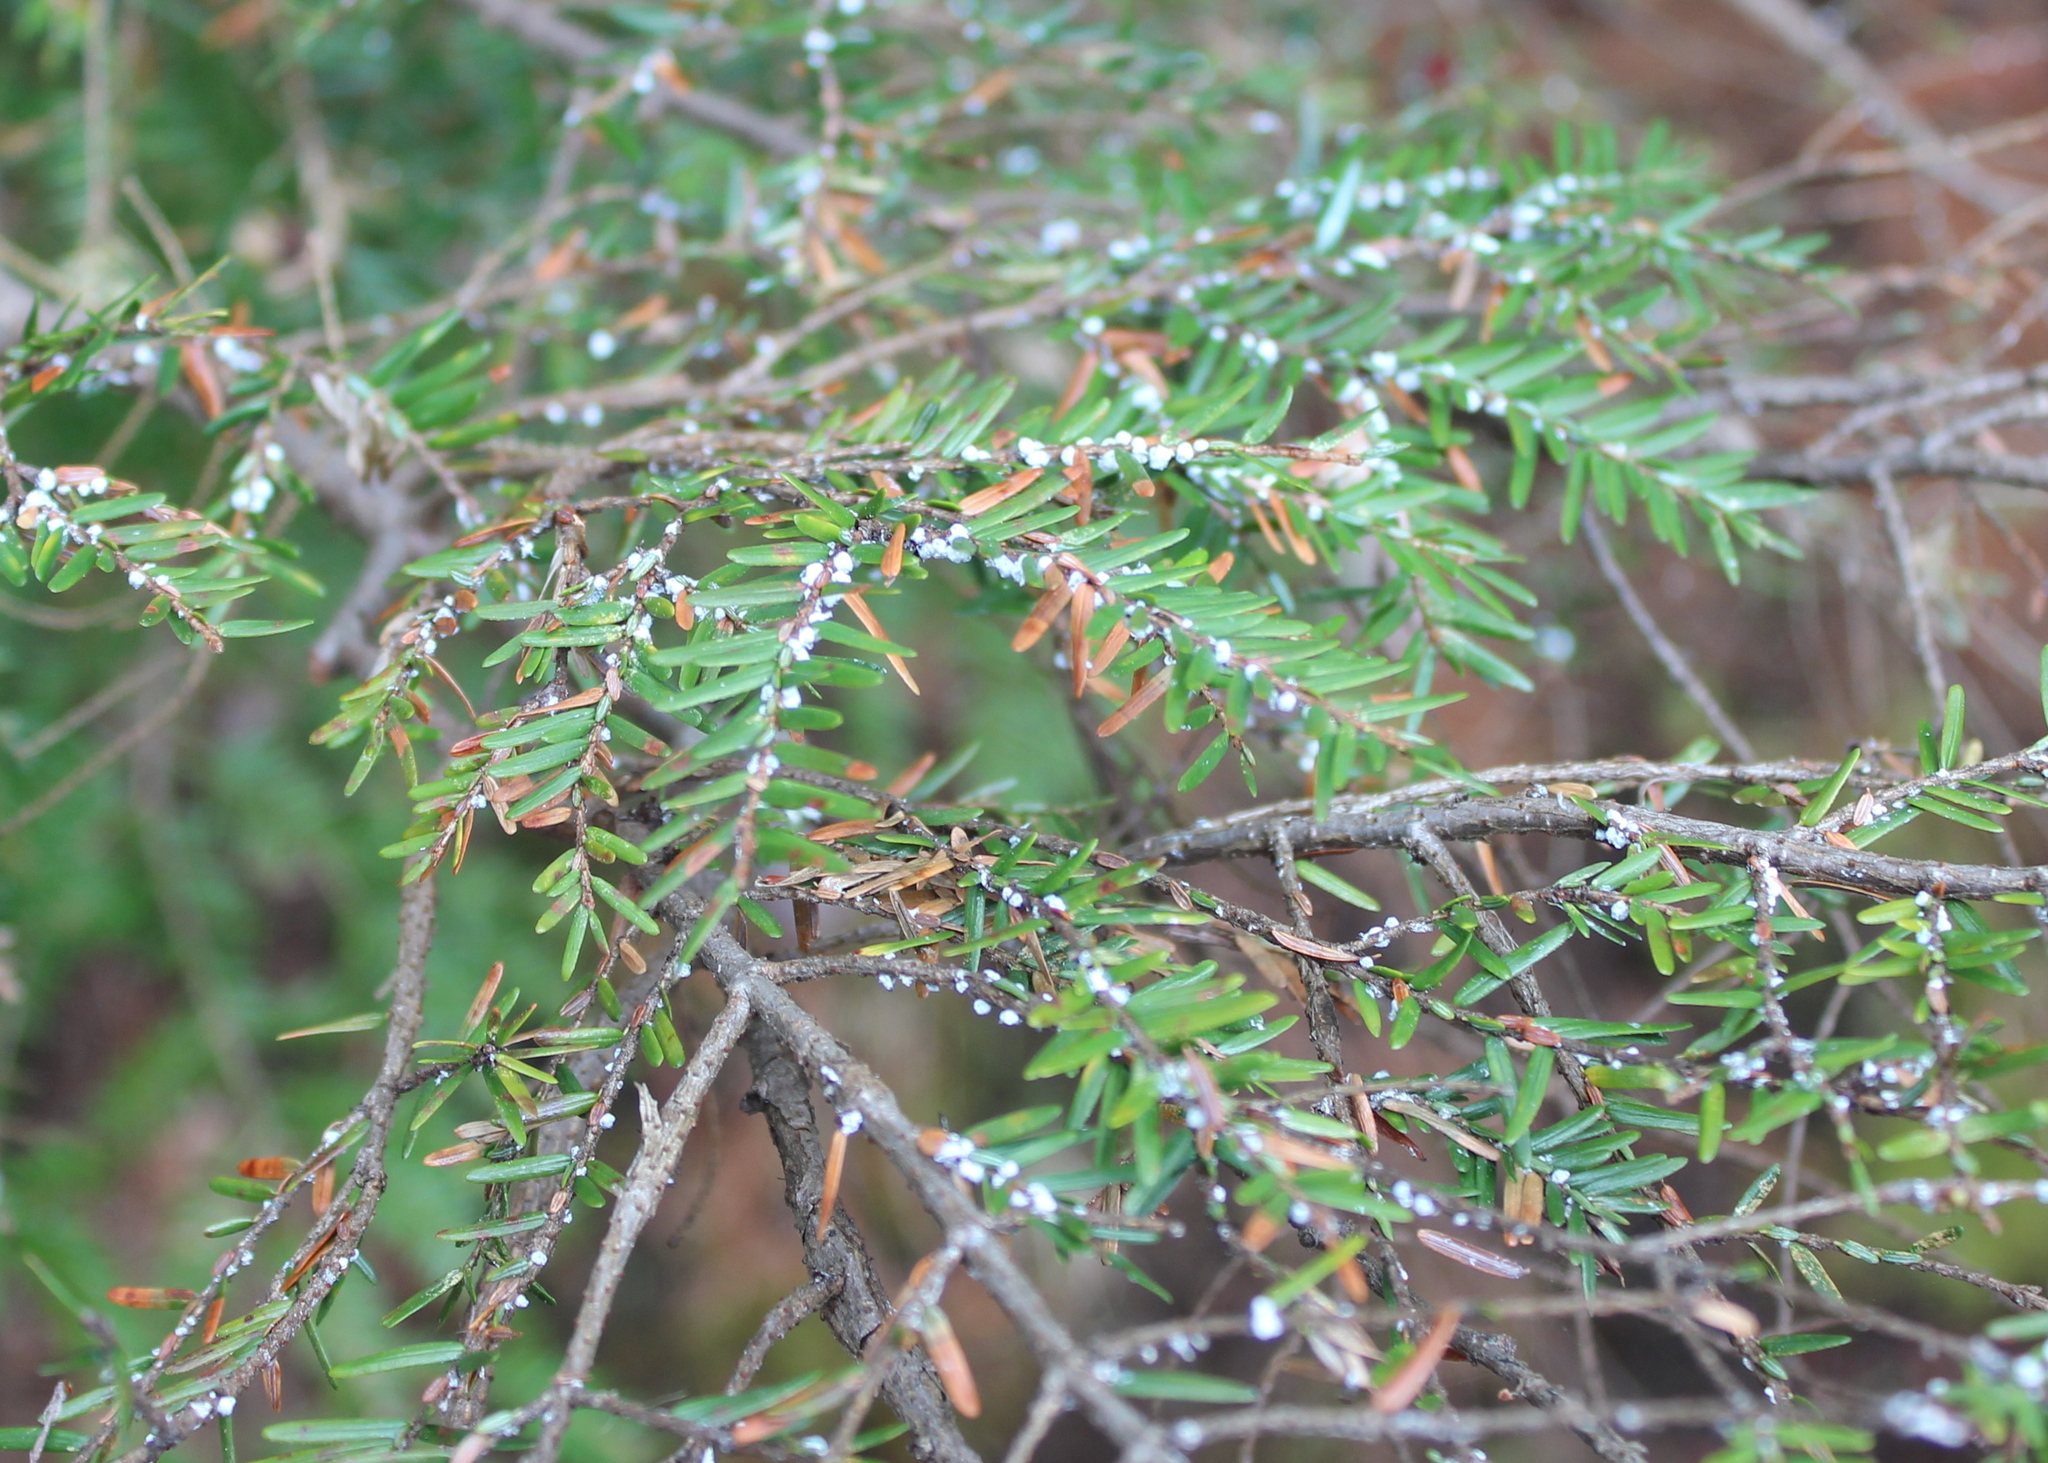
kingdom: Plantae
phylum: Tracheophyta
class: Pinopsida
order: Pinales
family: Pinaceae
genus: Tsuga
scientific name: Tsuga canadensis
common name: Eastern hemlock
